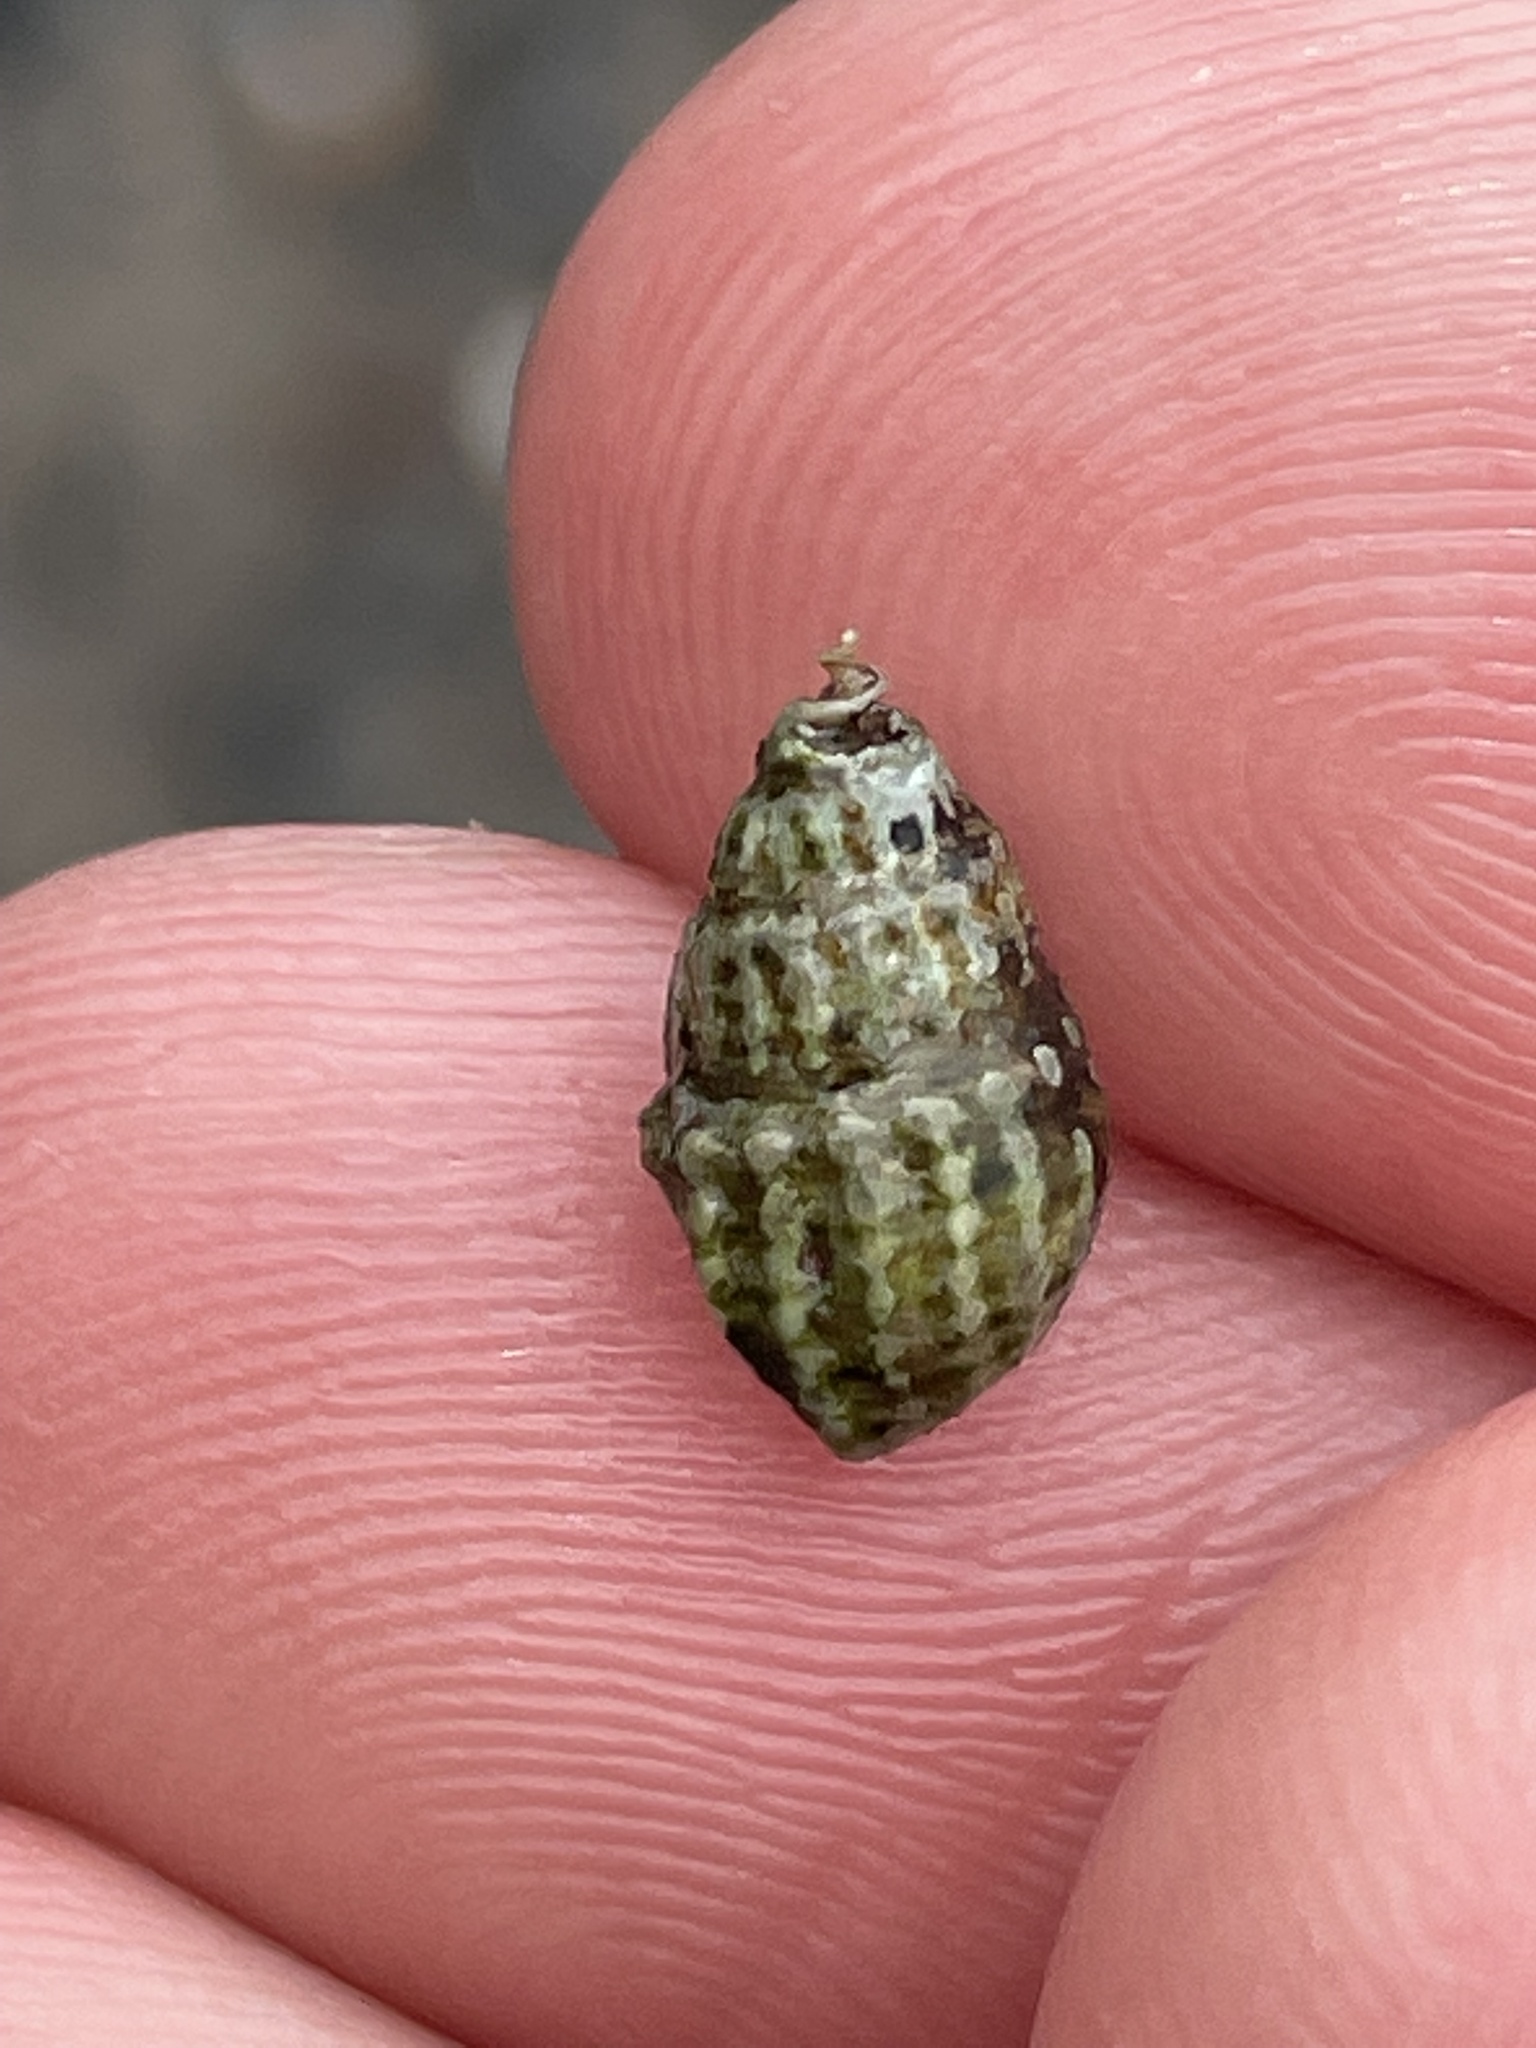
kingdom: Animalia
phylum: Mollusca
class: Gastropoda
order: Neogastropoda
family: Nassariidae
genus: Ilyanassa
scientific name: Ilyanassa trivittata
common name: Three-line mudsnail
